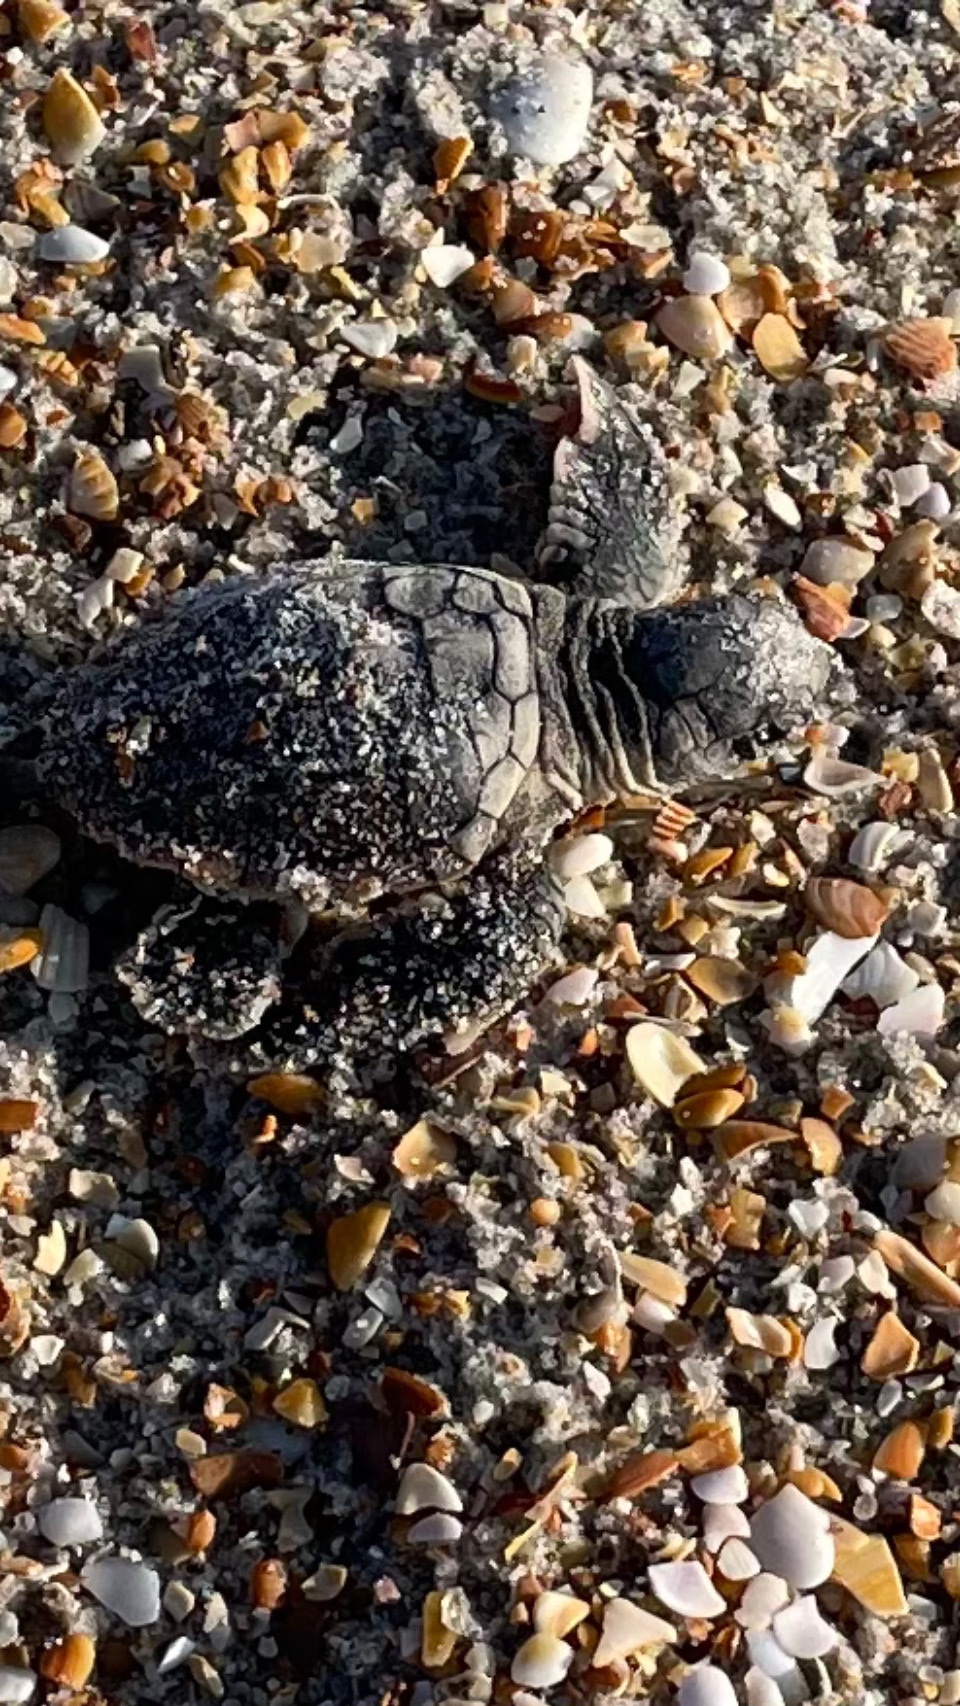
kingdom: Animalia
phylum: Chordata
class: Testudines
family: Cheloniidae
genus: Caretta
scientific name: Caretta caretta
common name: Loggerhead sea turtle
